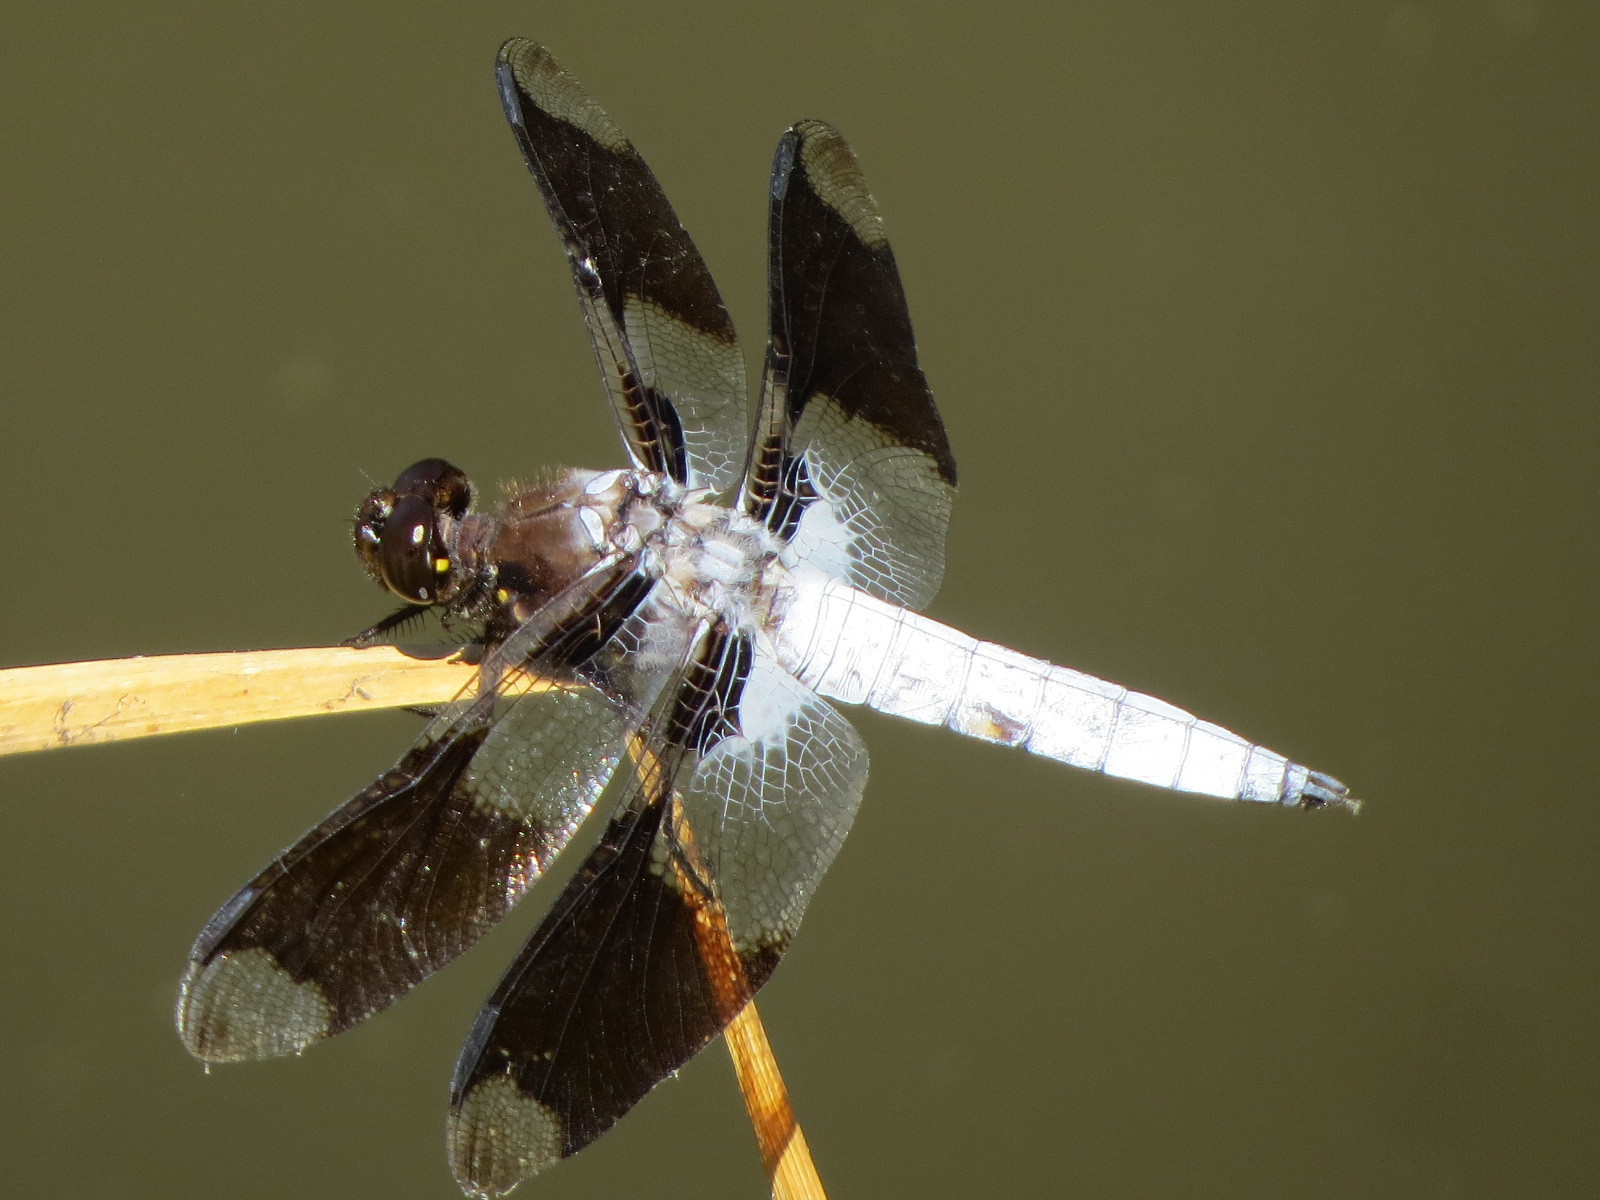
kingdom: Animalia
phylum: Arthropoda
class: Insecta
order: Odonata
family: Libellulidae
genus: Plathemis
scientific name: Plathemis lydia
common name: Common whitetail
